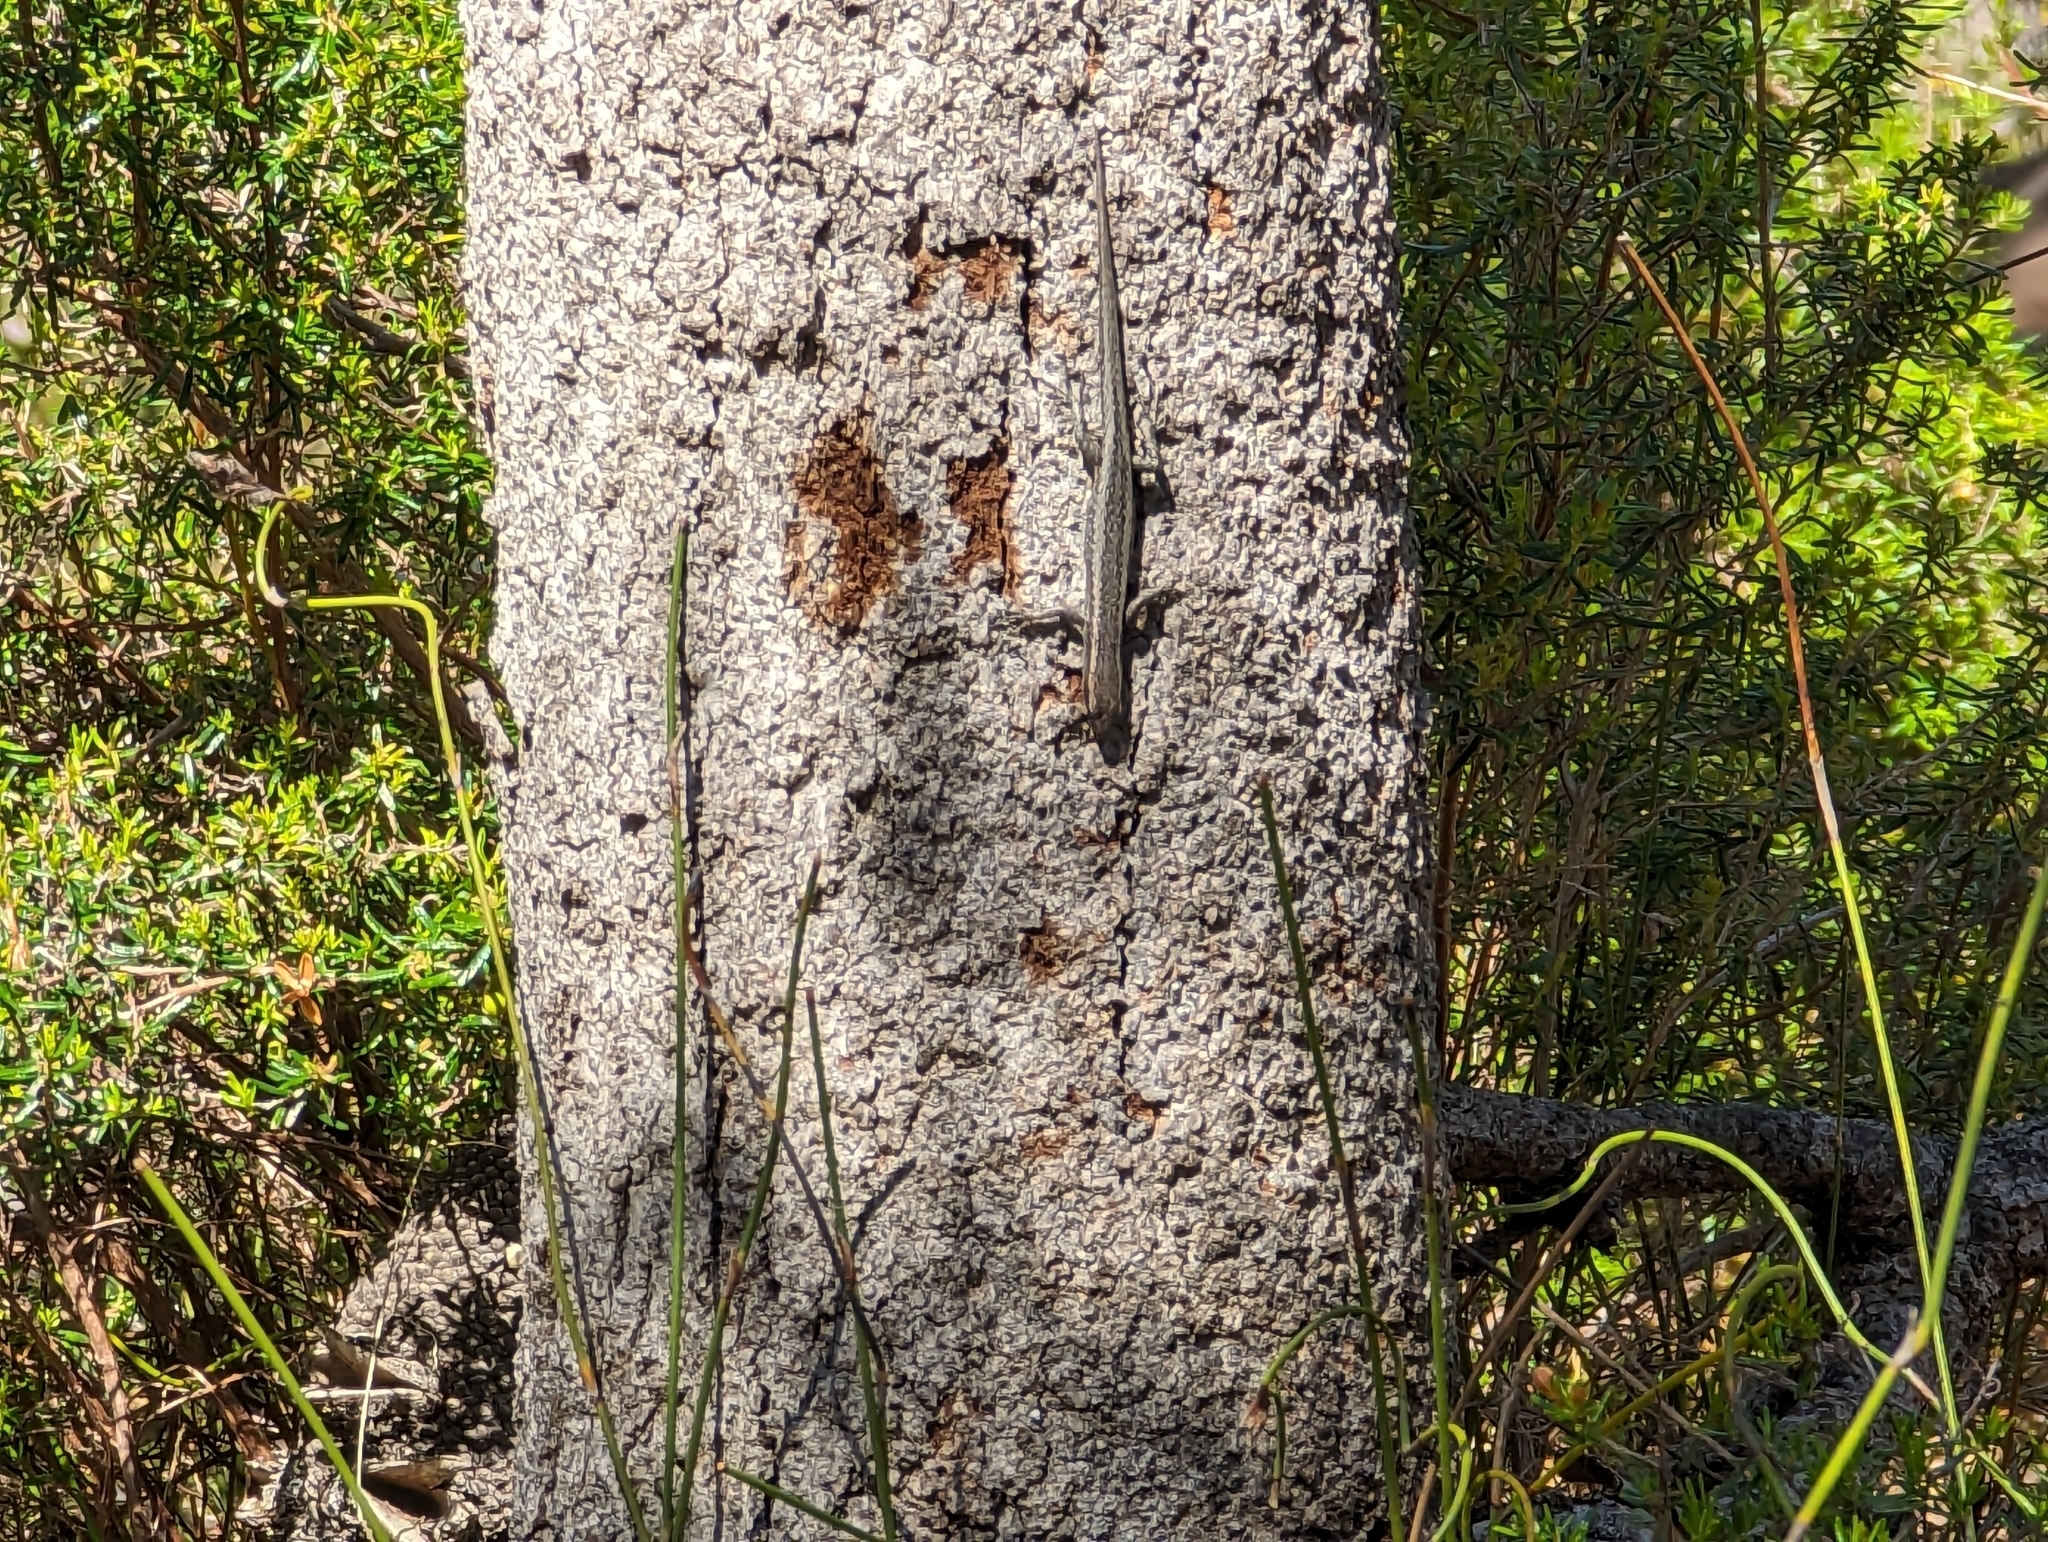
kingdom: Animalia
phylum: Chordata
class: Squamata
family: Scincidae
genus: Cryptoblepharus
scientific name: Cryptoblepharus buchananii
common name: Buchanan's snake-eyed skink
